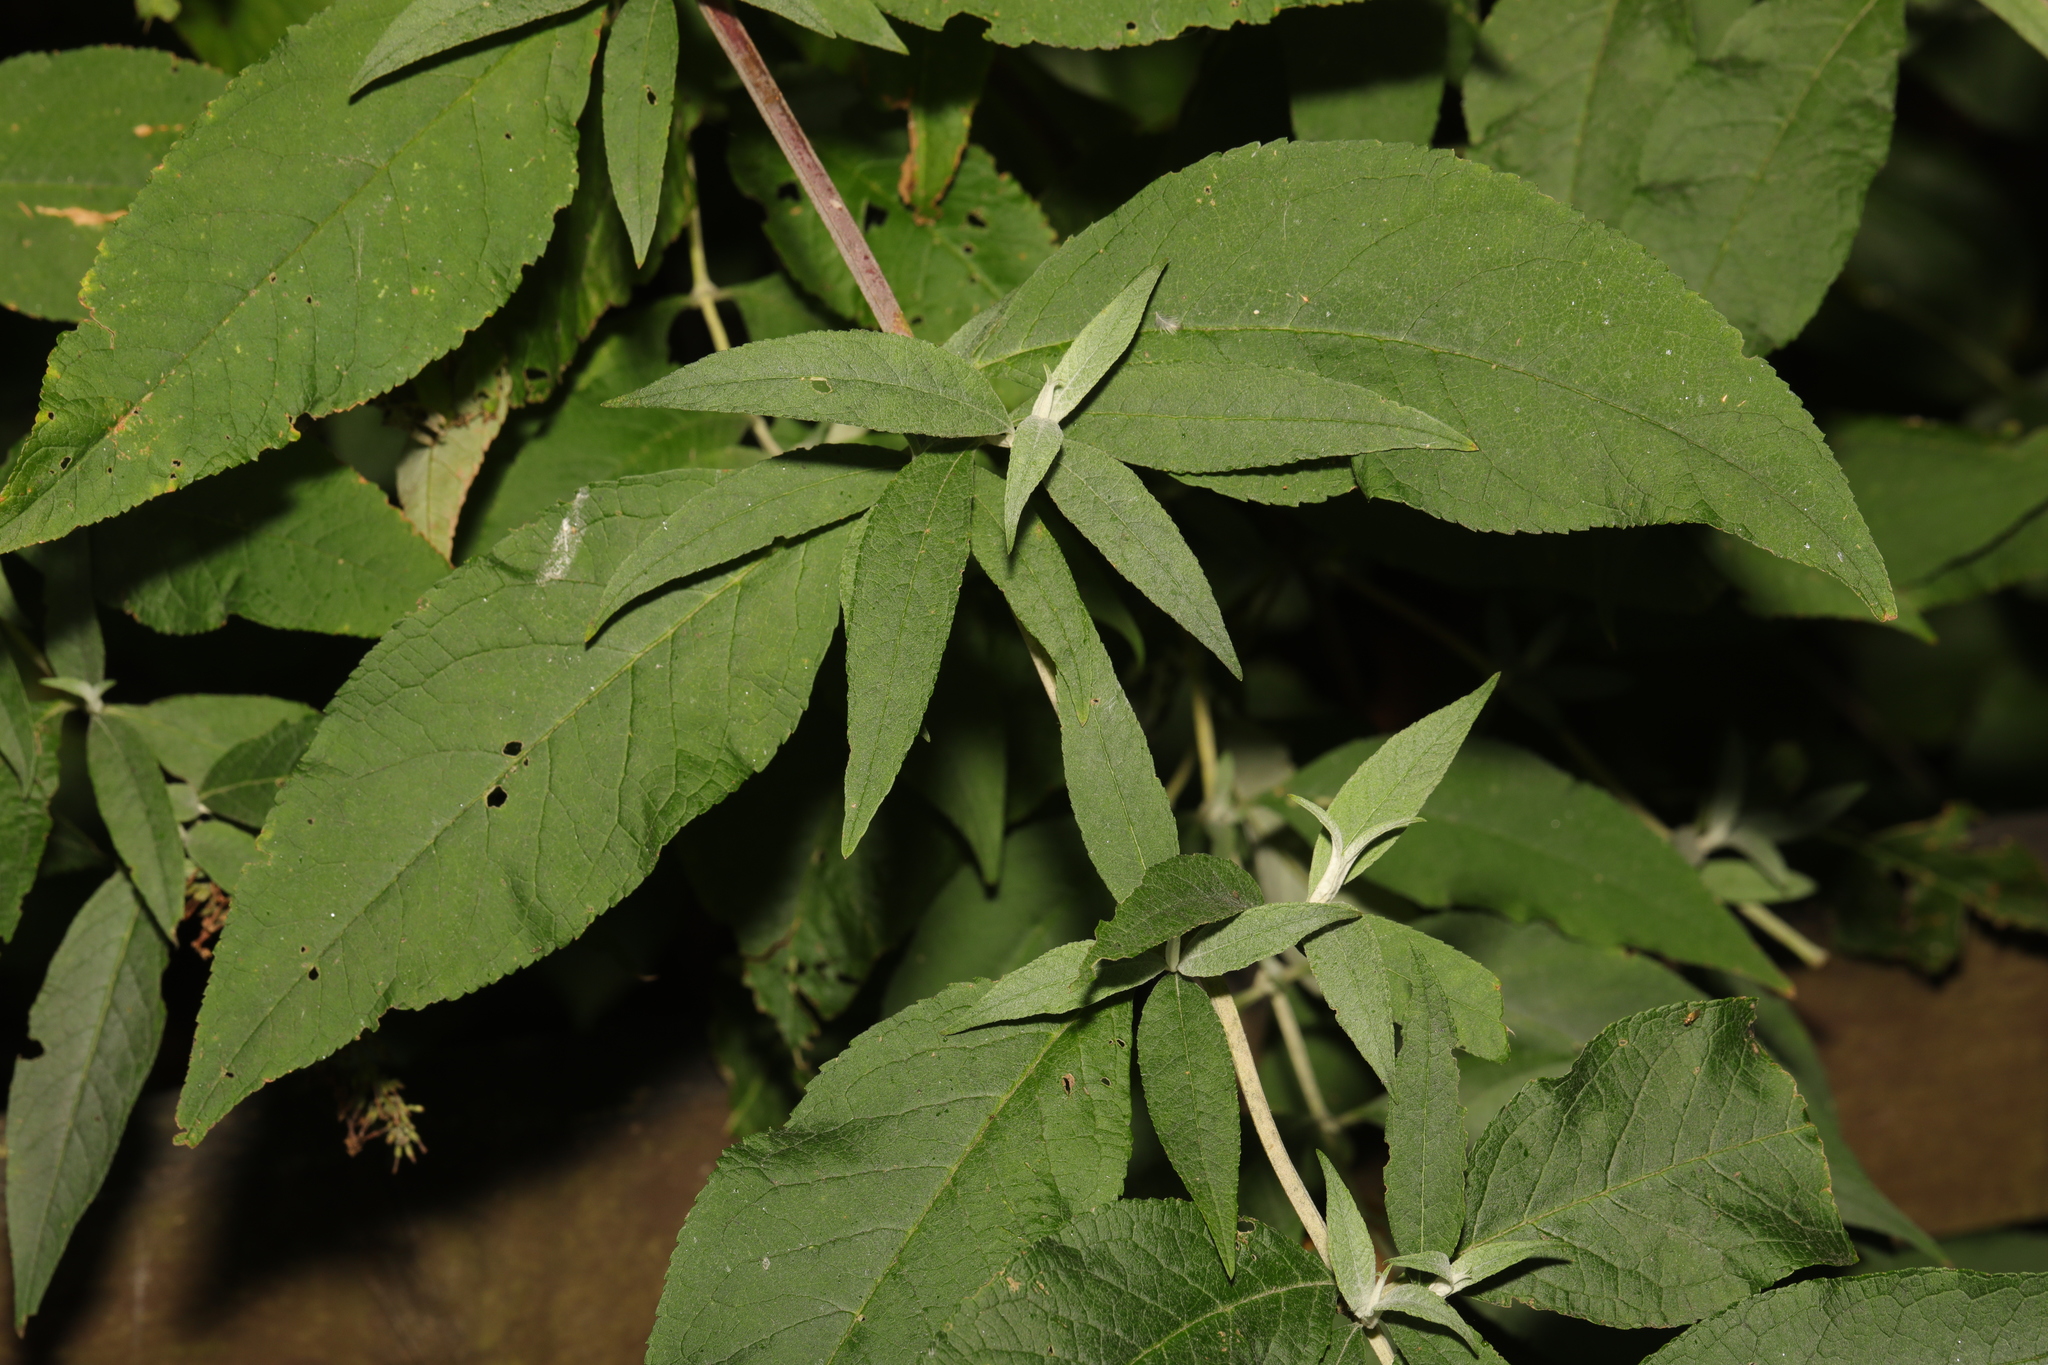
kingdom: Plantae
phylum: Tracheophyta
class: Magnoliopsida
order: Lamiales
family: Scrophulariaceae
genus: Buddleja
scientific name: Buddleja davidii
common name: Butterfly-bush
